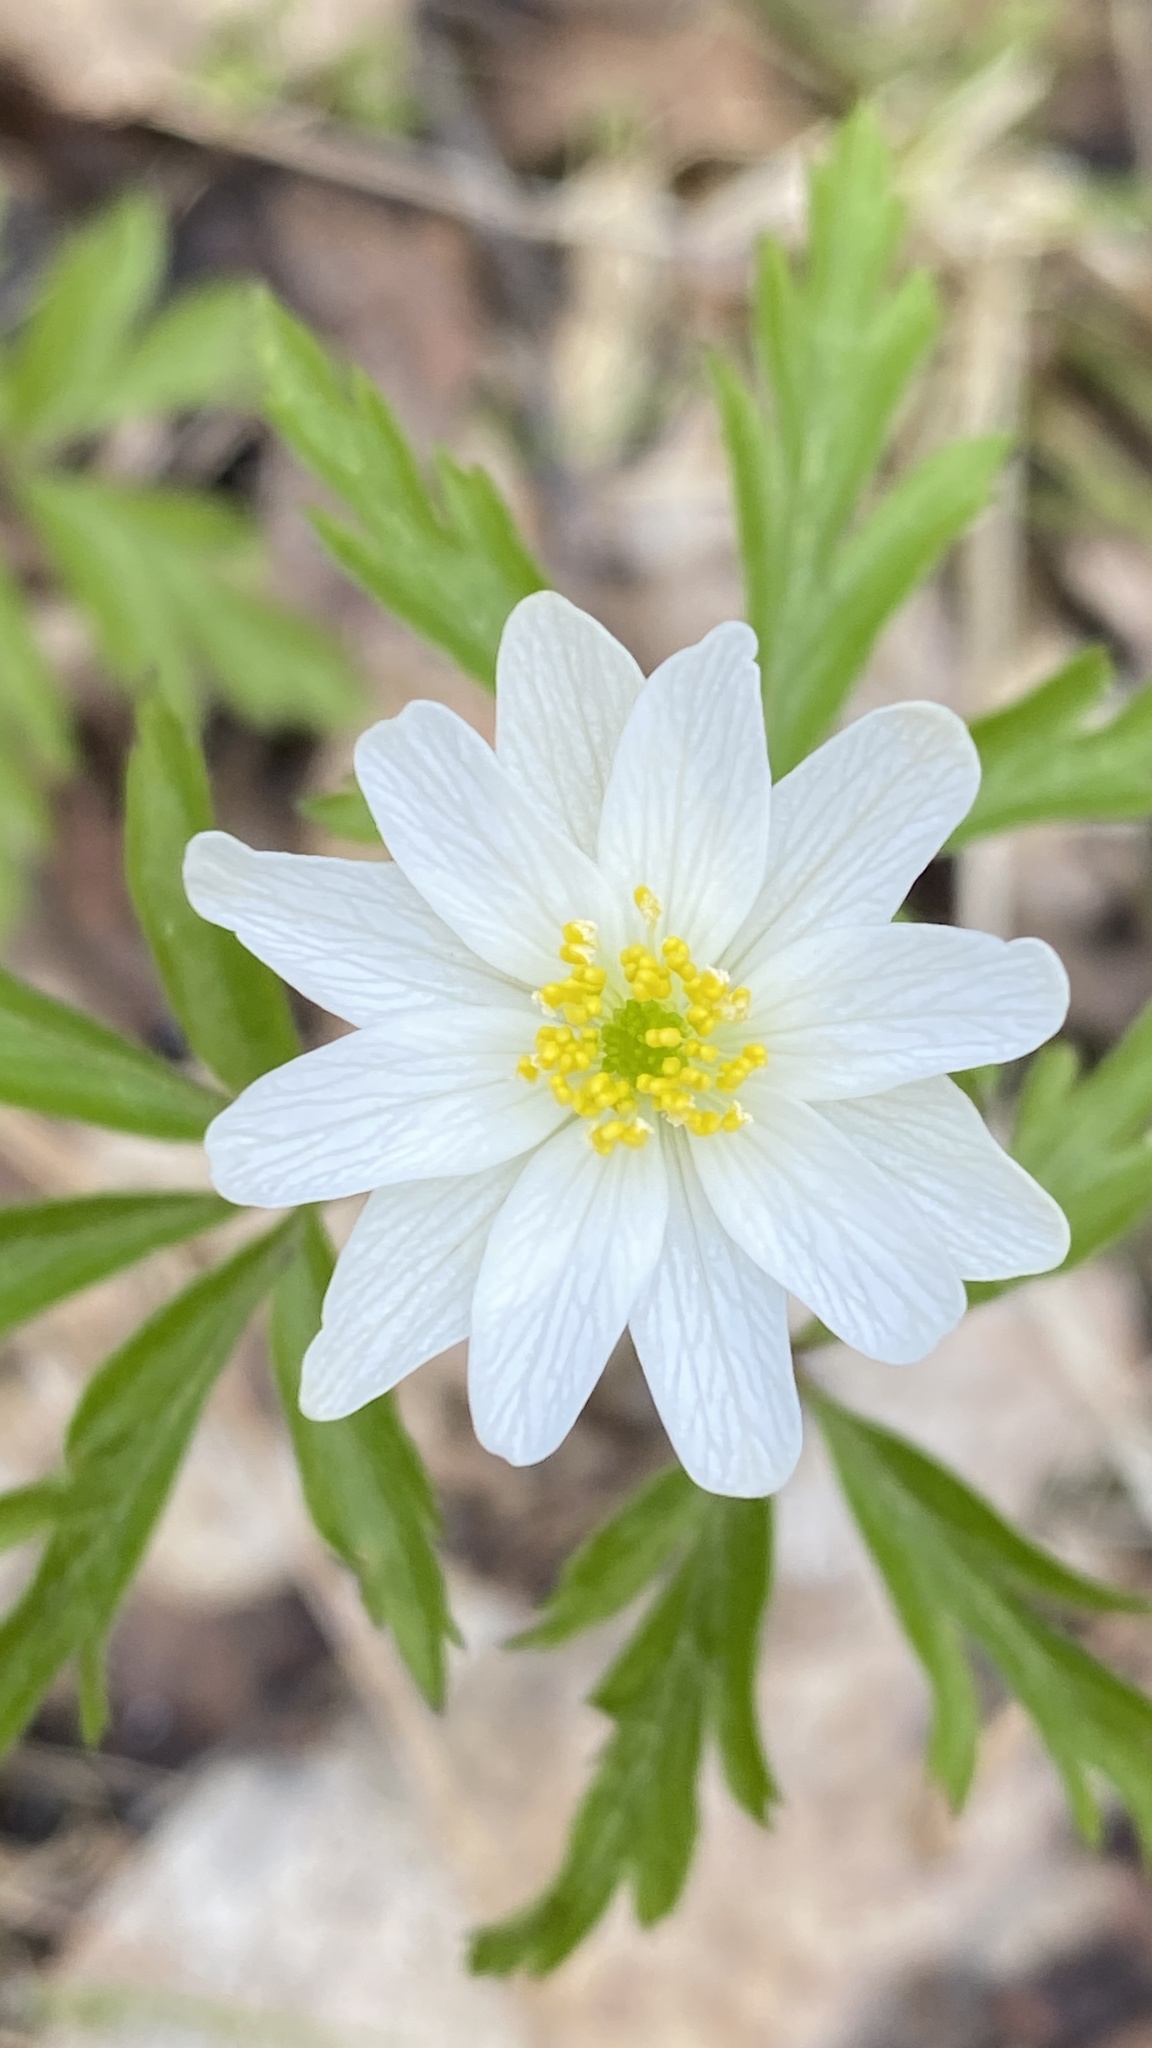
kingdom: Plantae
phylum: Tracheophyta
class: Magnoliopsida
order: Ranunculales
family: Ranunculaceae
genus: Anemone
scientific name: Anemone nemorosa
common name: Wood anemone
